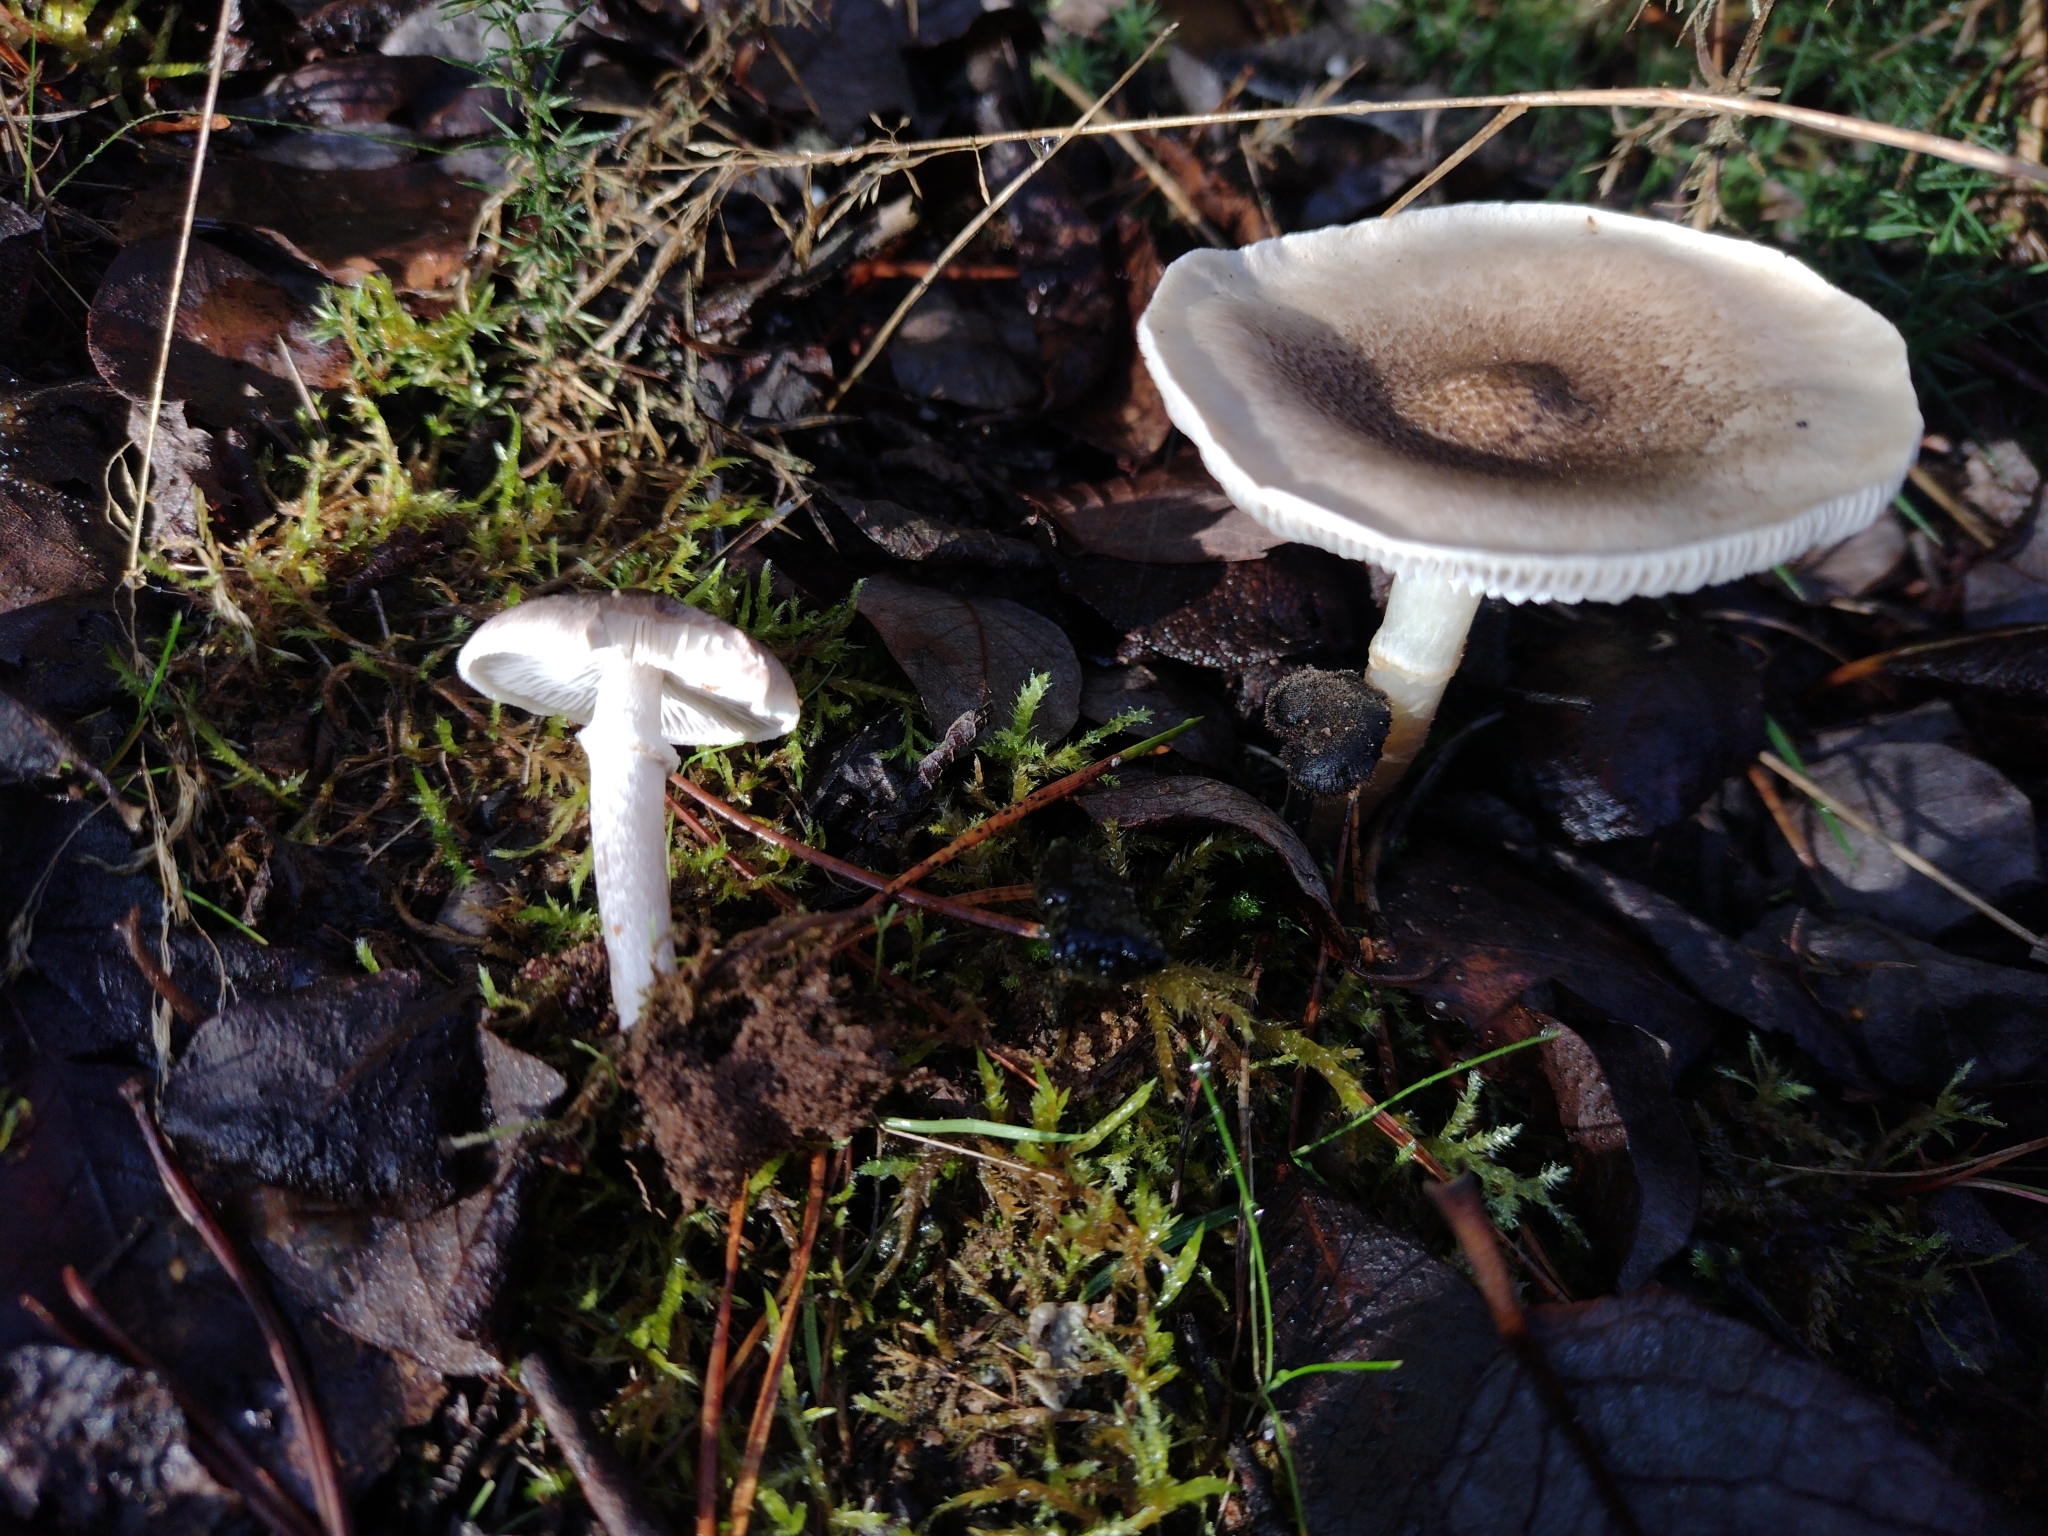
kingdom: Fungi
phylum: Basidiomycota
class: Agaricomycetes
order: Agaricales
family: Tricholomataceae
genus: Tricholoma
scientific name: Tricholoma cingulatum
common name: Girdled knight
